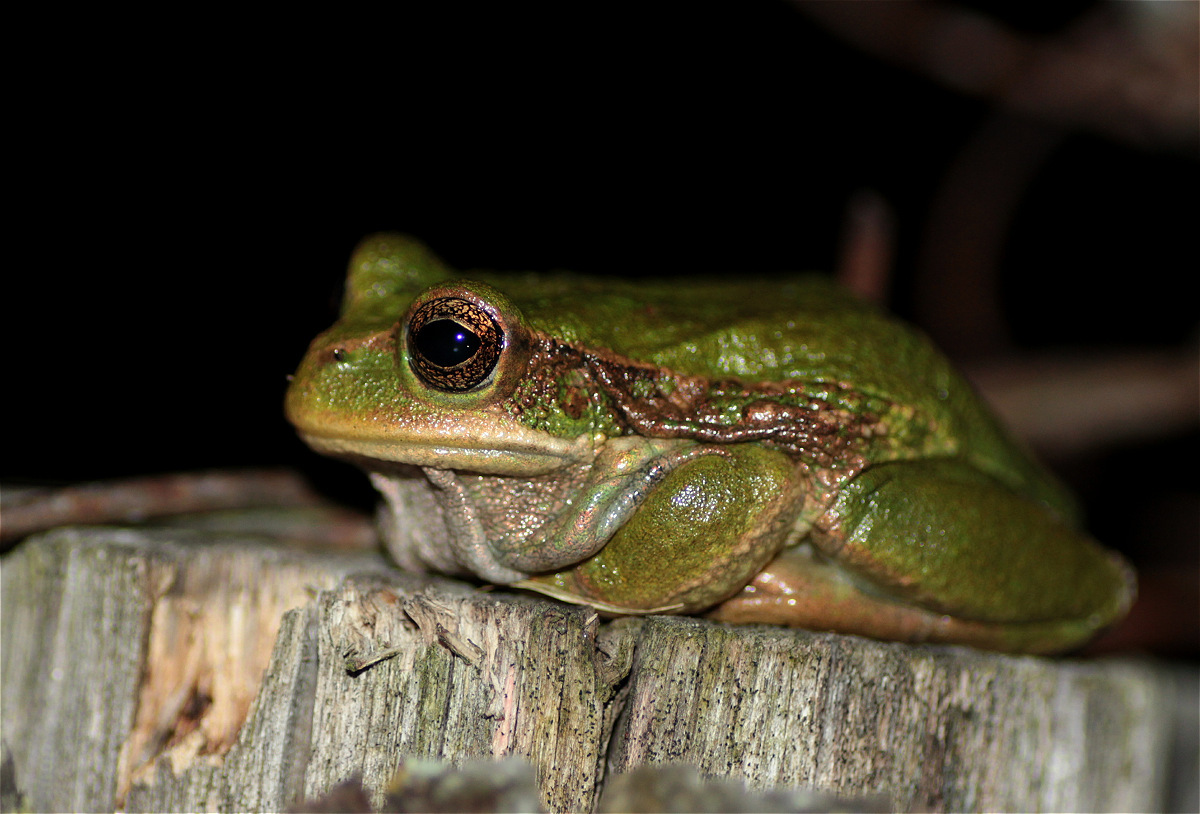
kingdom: Animalia
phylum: Chordata
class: Amphibia
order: Anura
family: Hemiphractidae
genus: Gastrotheca
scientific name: Gastrotheca cuencana
